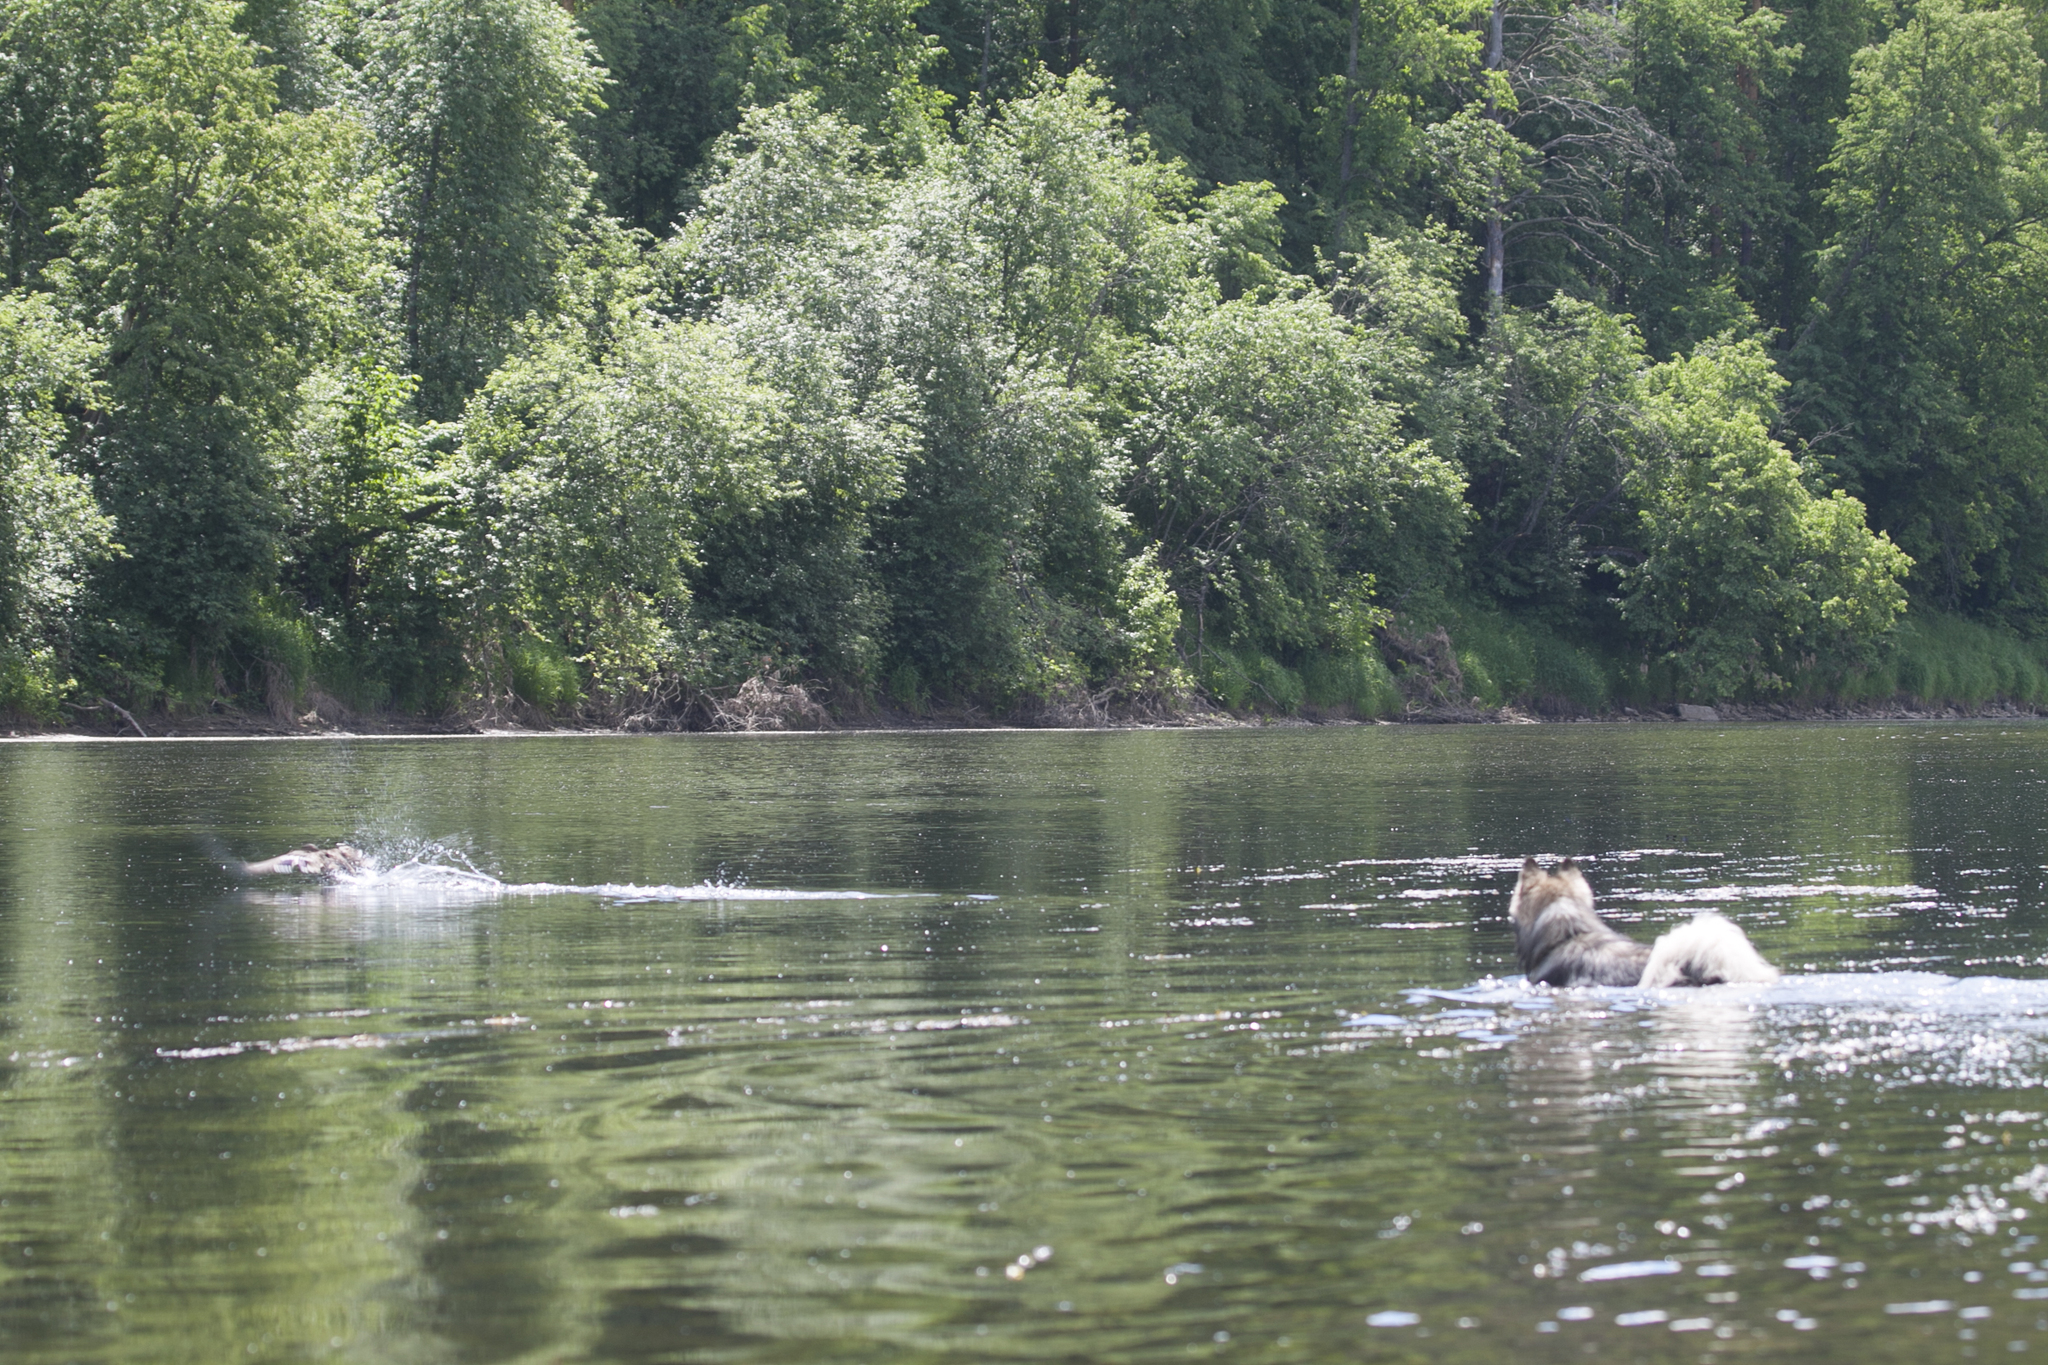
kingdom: Animalia
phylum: Chordata
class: Aves
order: Anseriformes
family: Anatidae
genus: Anas
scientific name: Anas platyrhynchos
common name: Mallard
